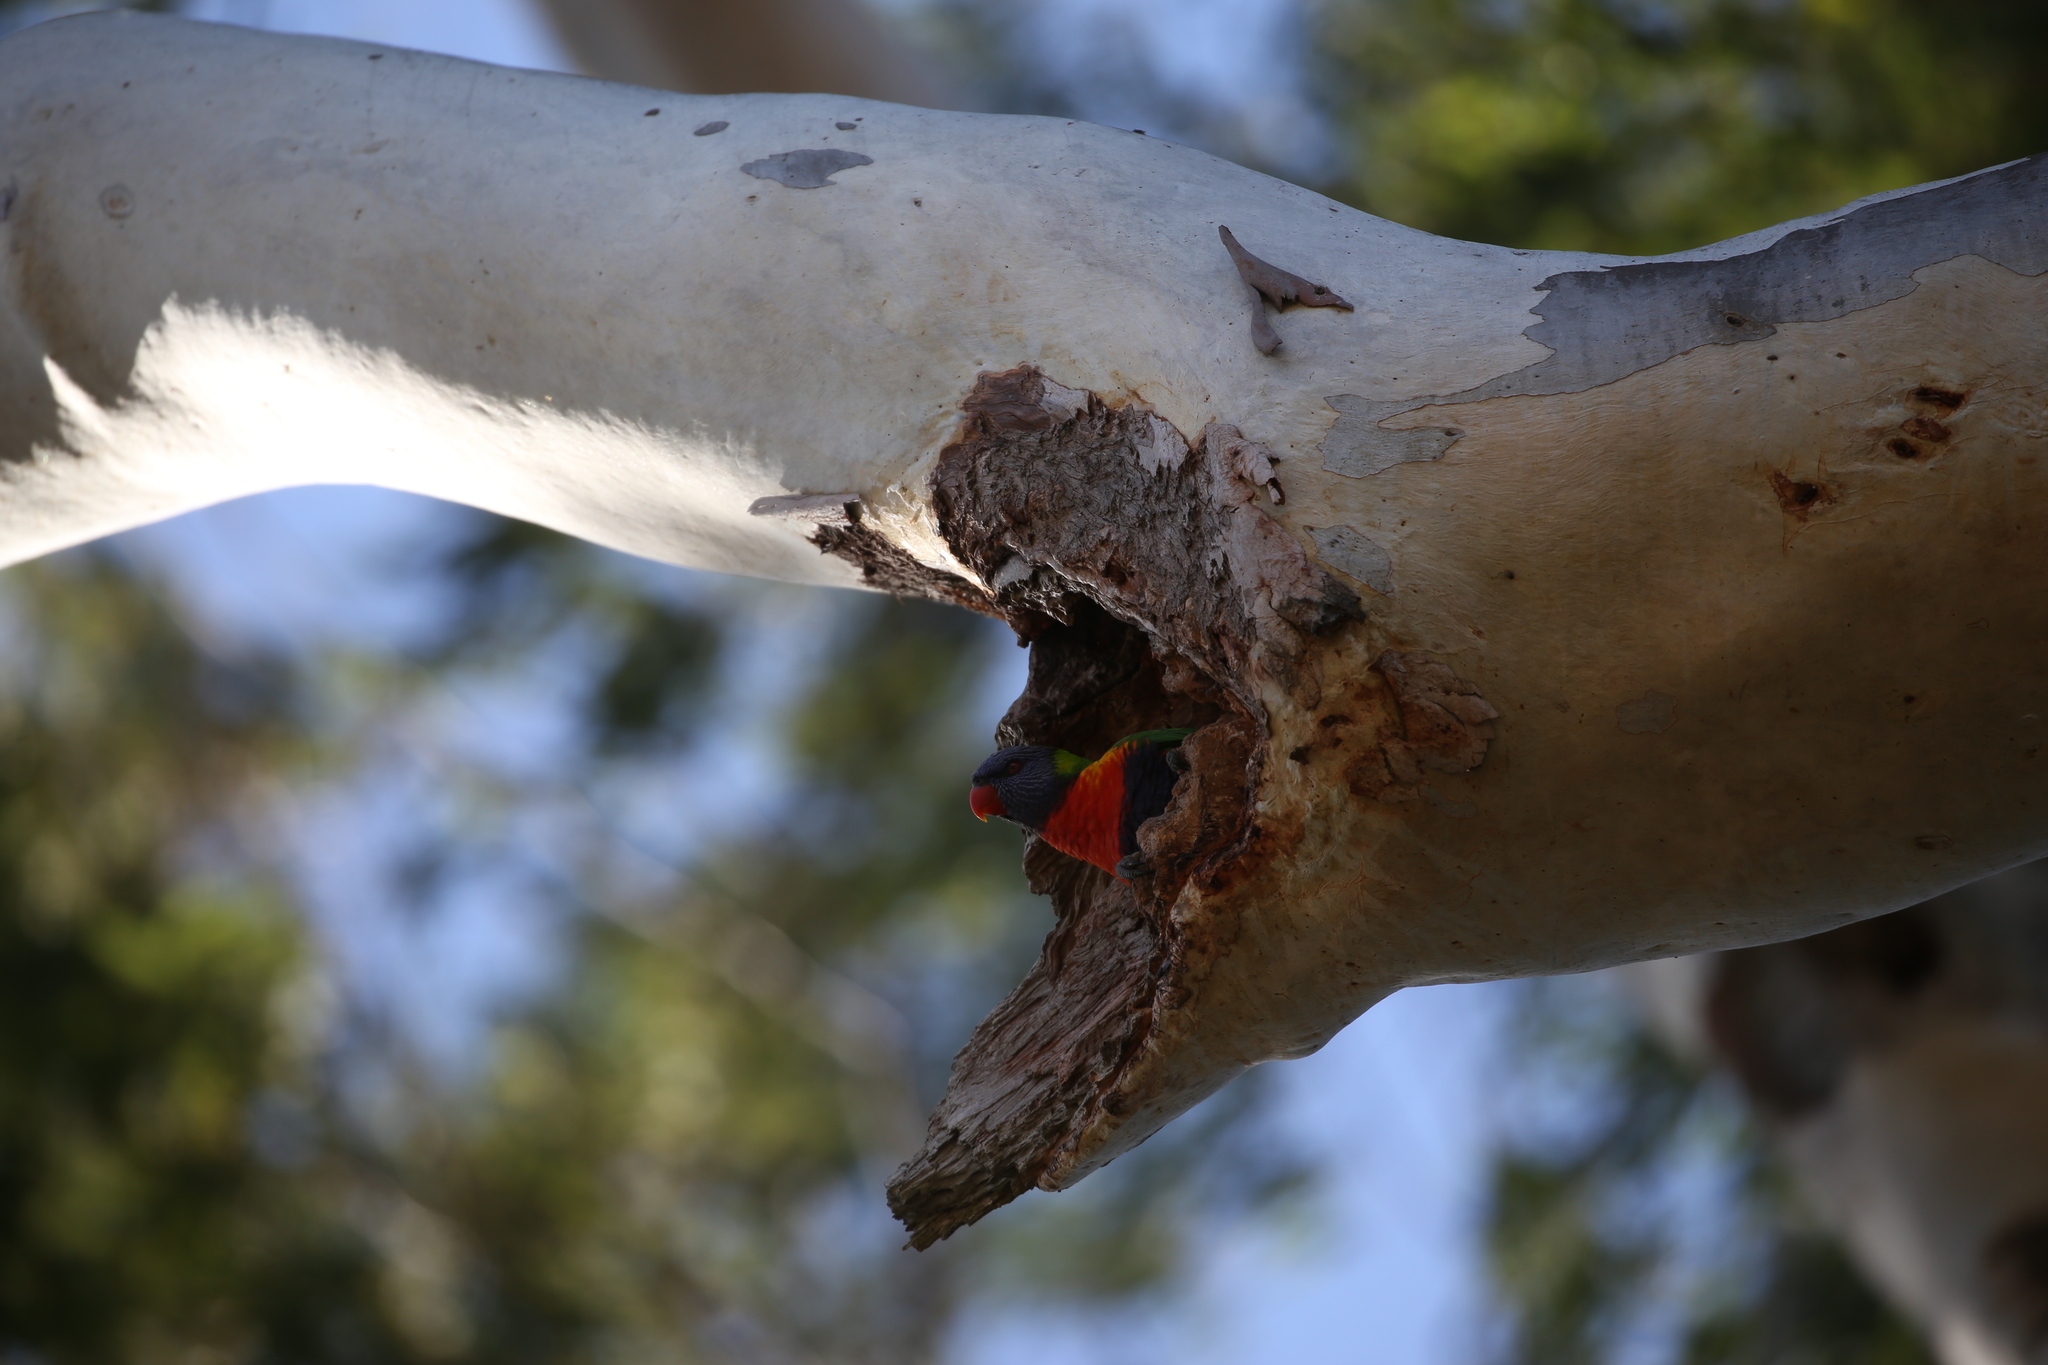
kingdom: Animalia
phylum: Chordata
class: Aves
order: Psittaciformes
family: Psittacidae
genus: Trichoglossus
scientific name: Trichoglossus haematodus
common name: Coconut lorikeet
